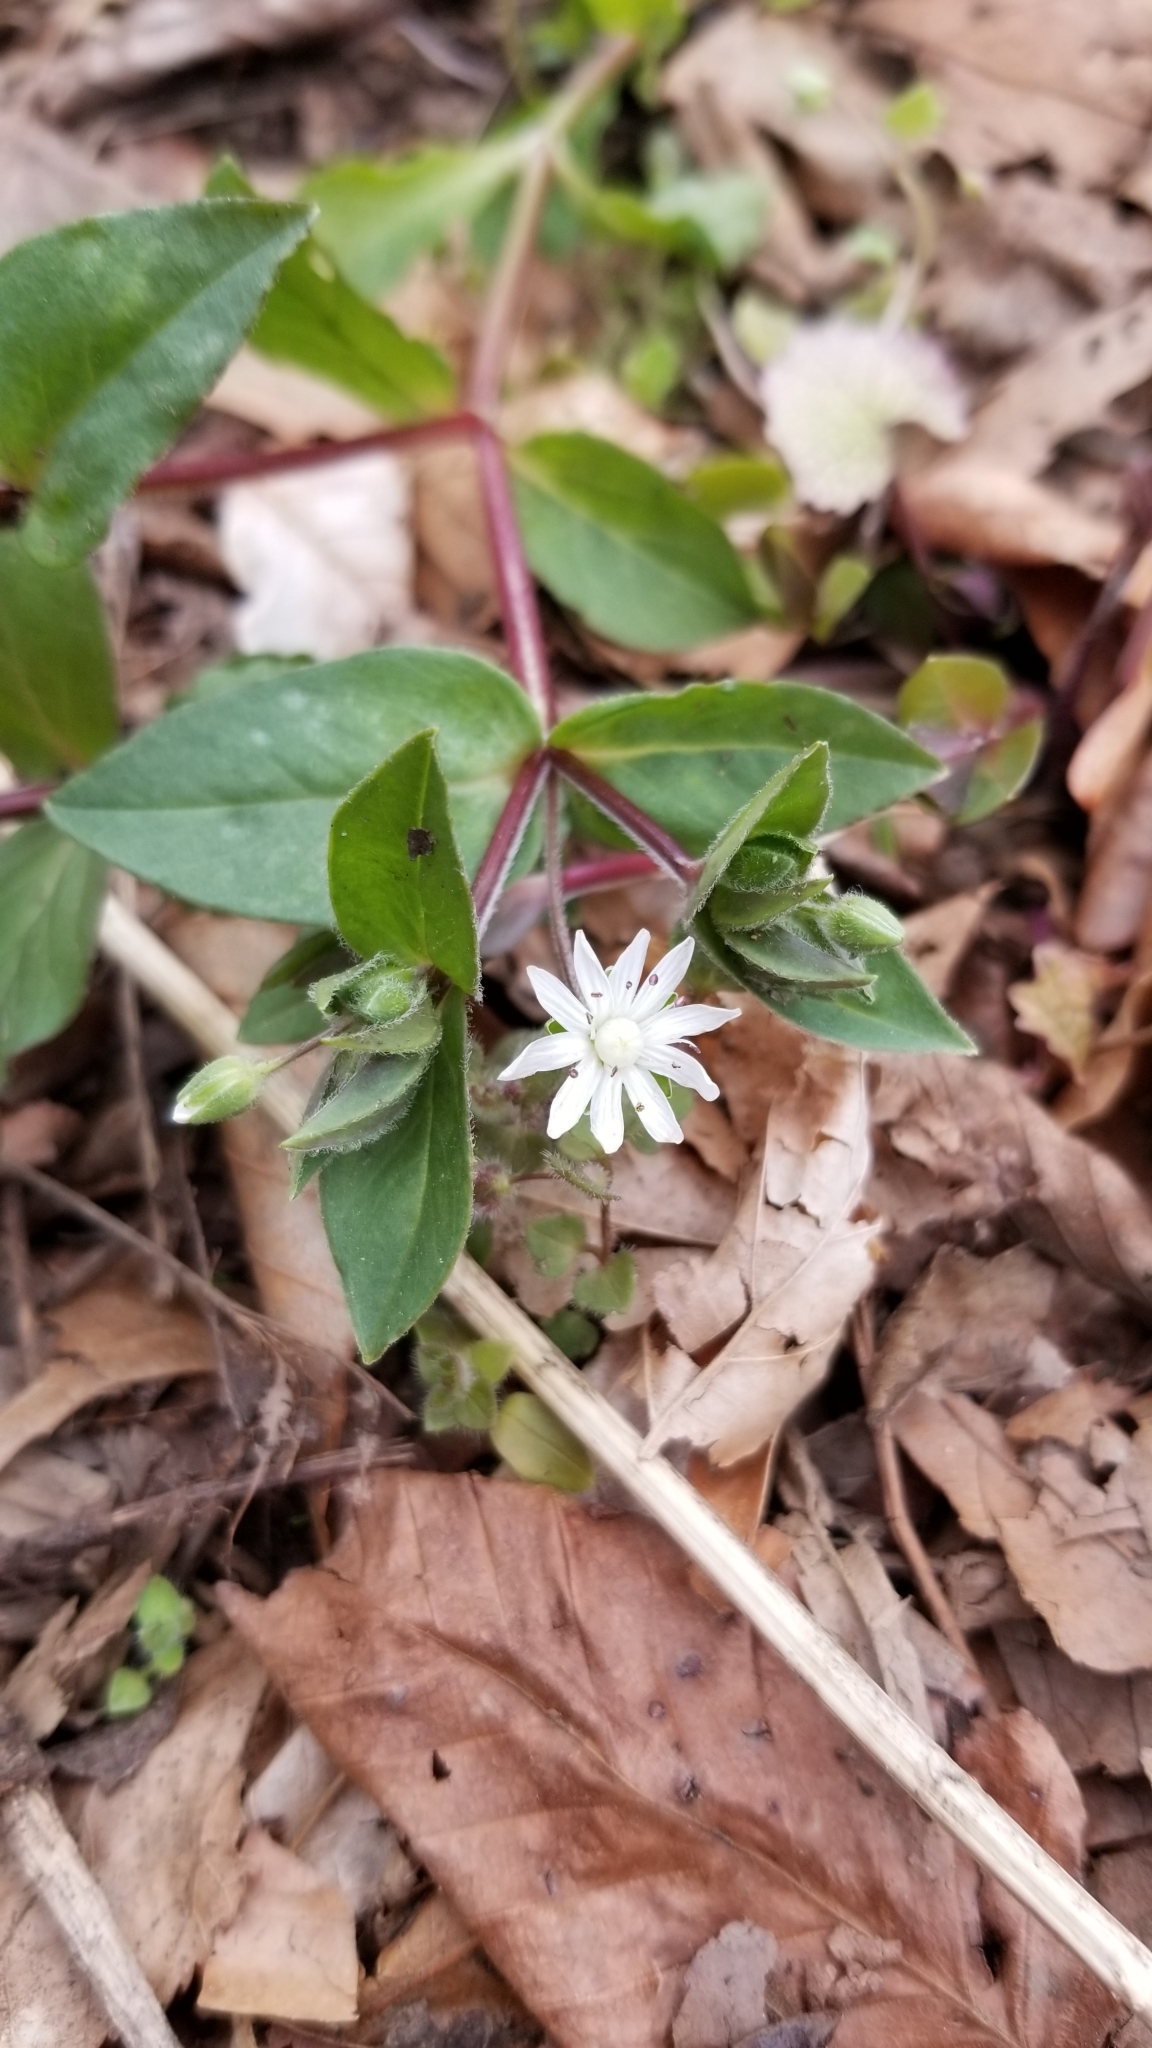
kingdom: Plantae
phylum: Tracheophyta
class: Magnoliopsida
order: Caryophyllales
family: Caryophyllaceae
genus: Stellaria
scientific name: Stellaria pubera
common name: Star chickweed
